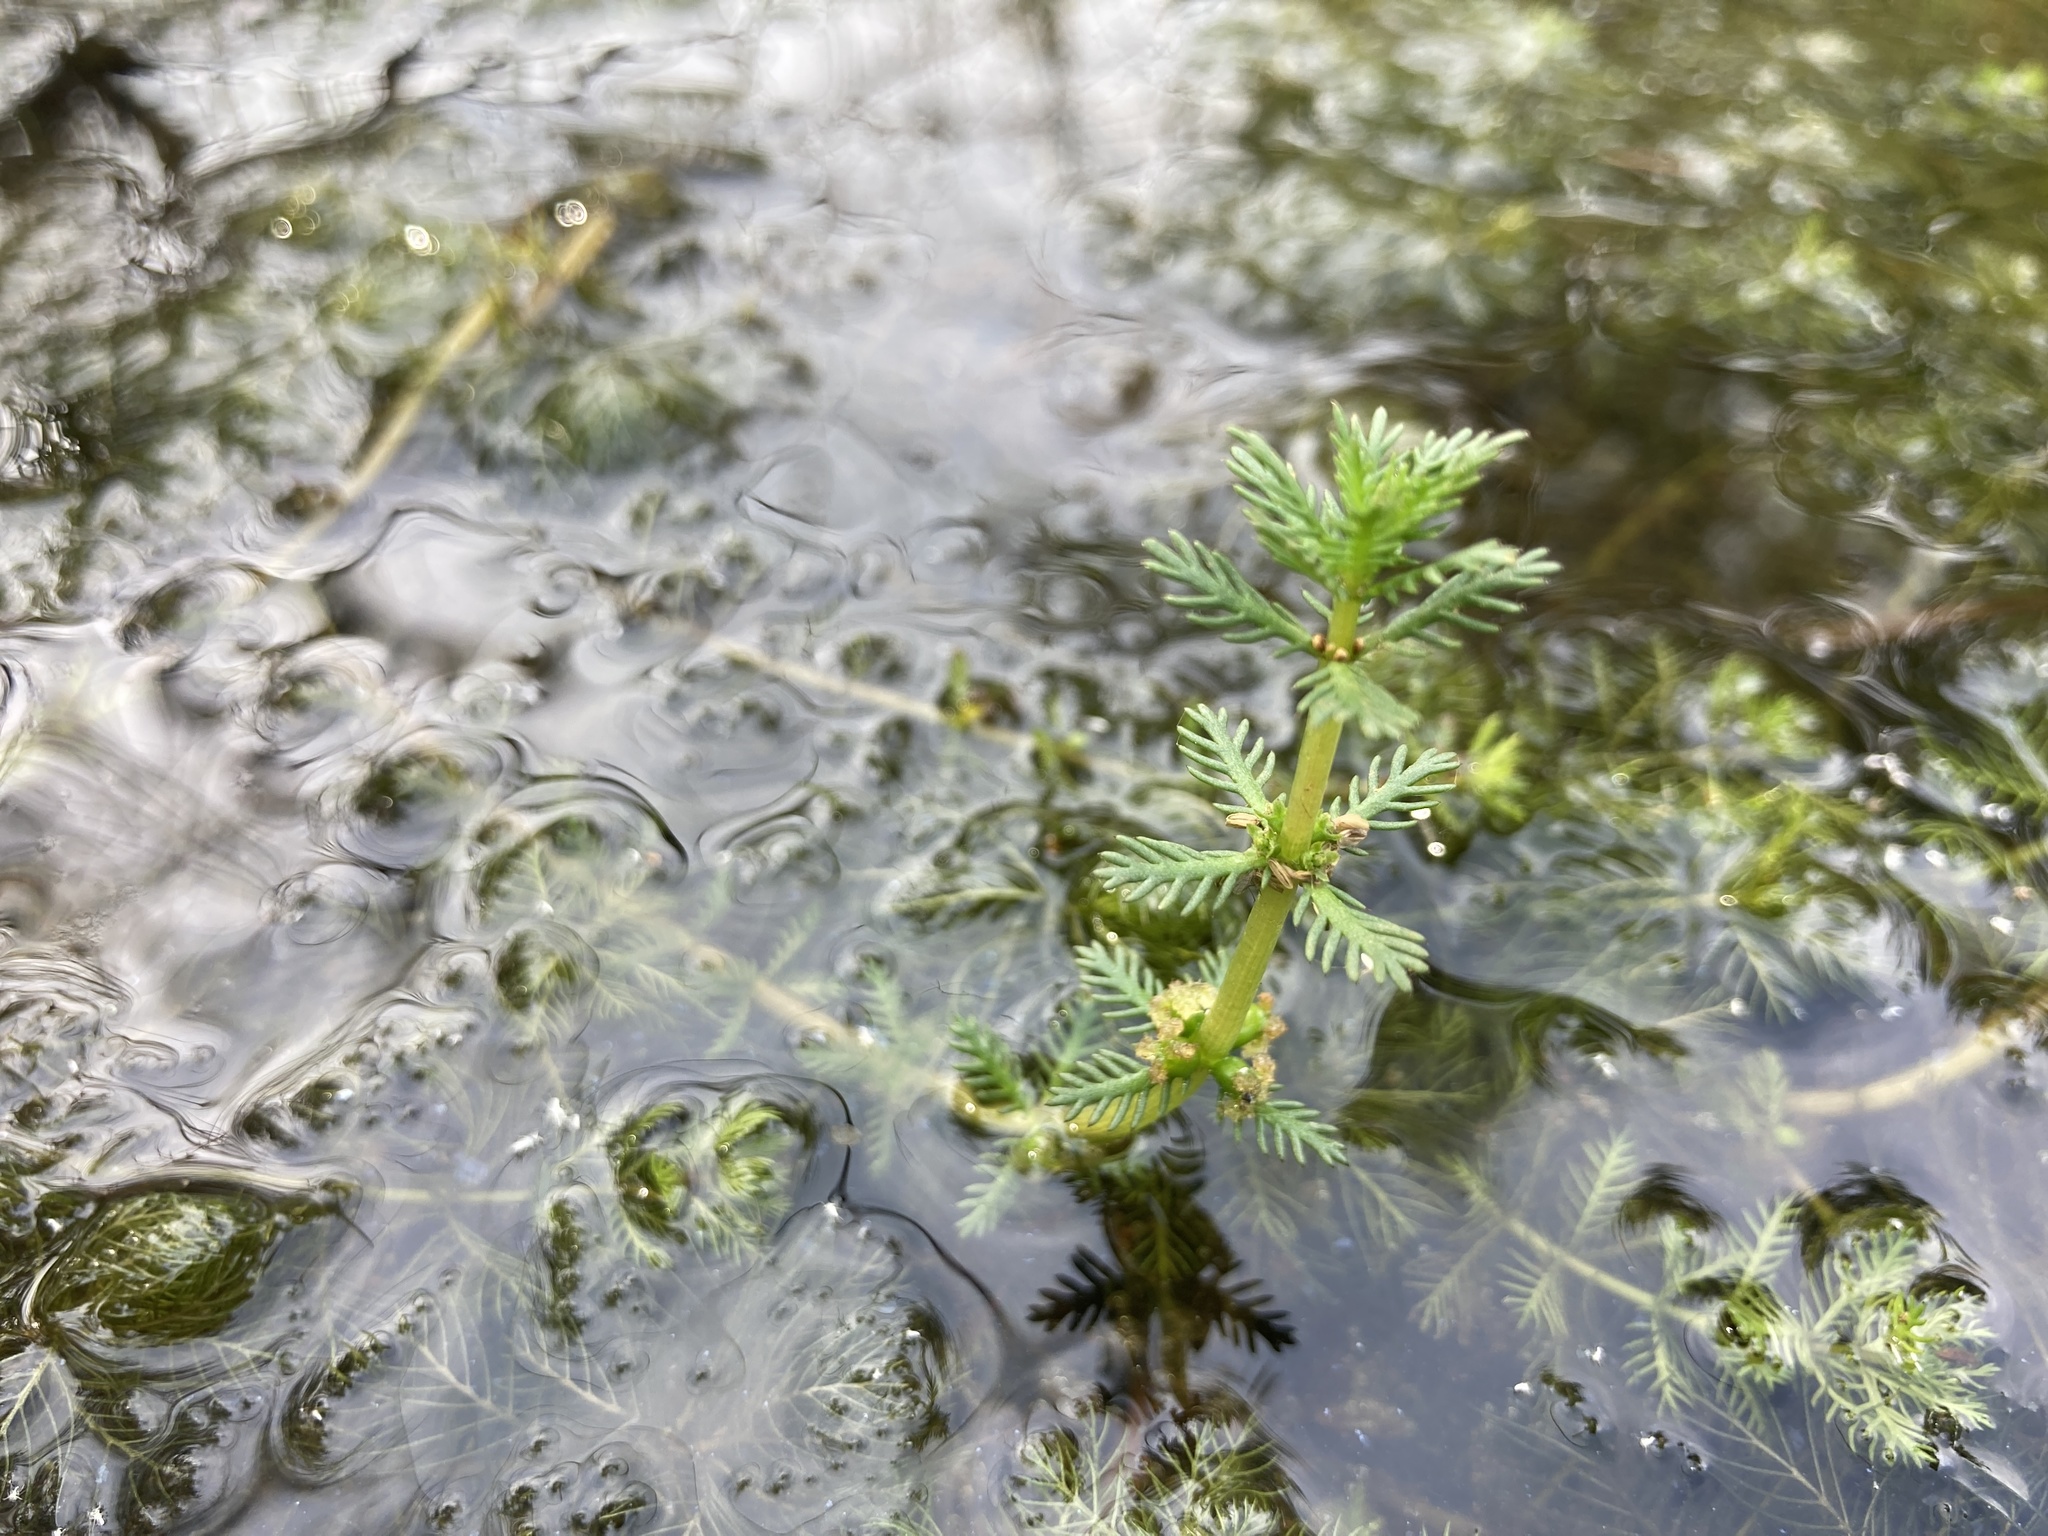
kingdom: Plantae
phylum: Tracheophyta
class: Magnoliopsida
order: Saxifragales
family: Haloragaceae
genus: Myriophyllum
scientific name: Myriophyllum verticillatum
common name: Whorled water-milfoil
